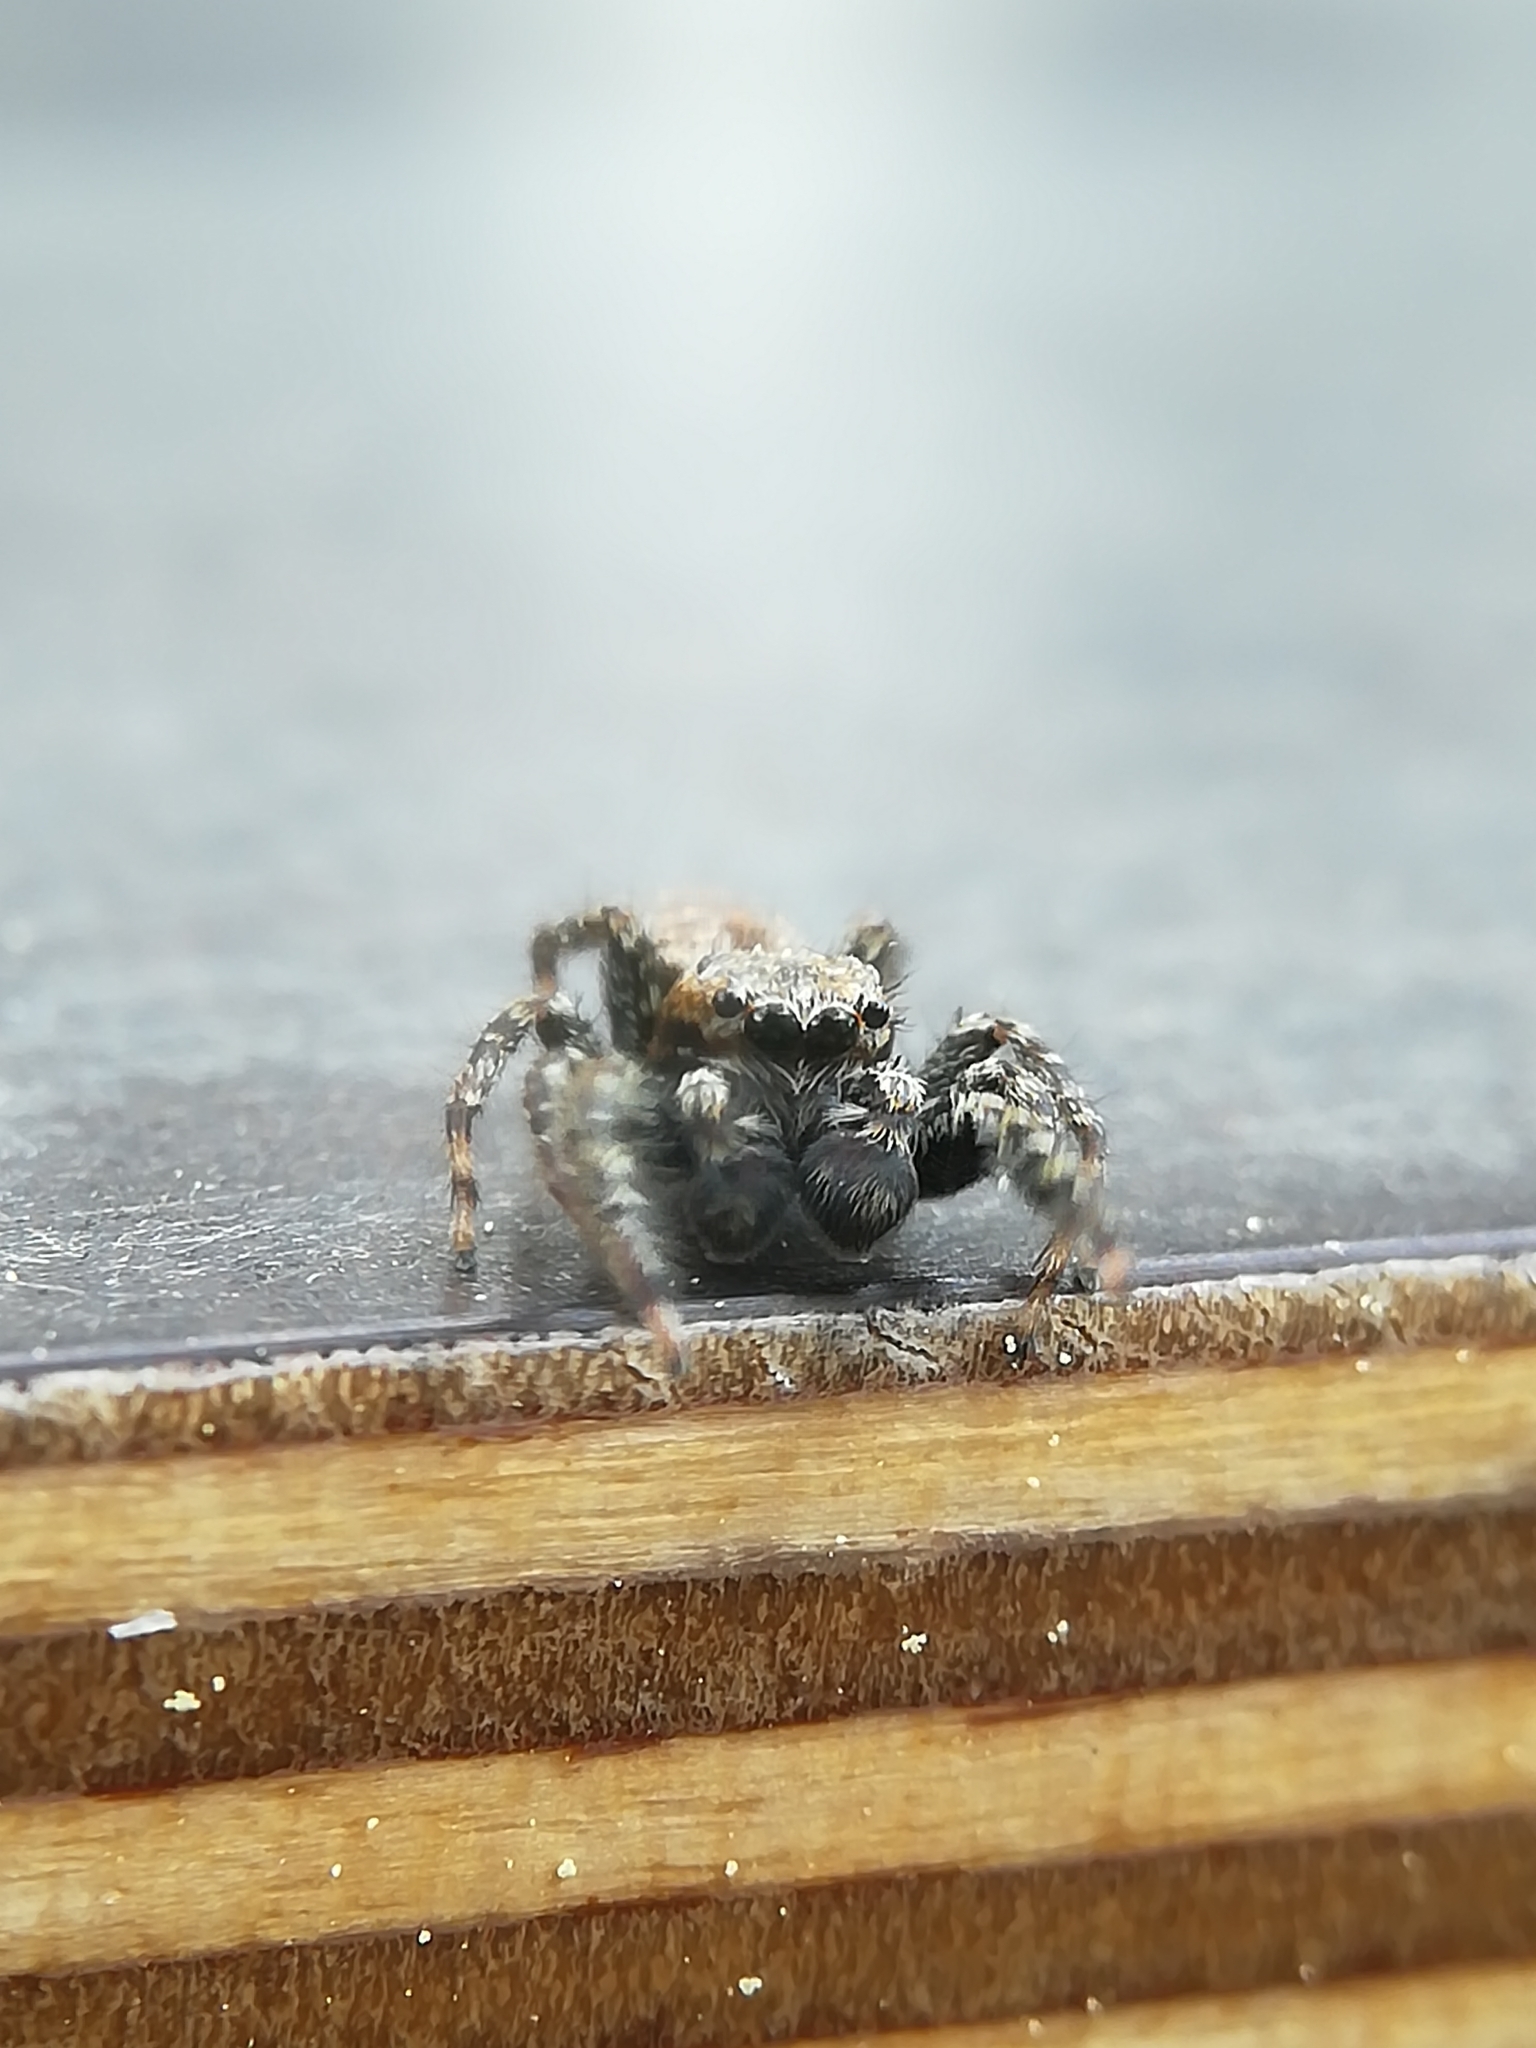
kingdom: Animalia
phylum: Arthropoda
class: Arachnida
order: Araneae
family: Salticidae
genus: Marpissa
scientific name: Marpissa muscosa
